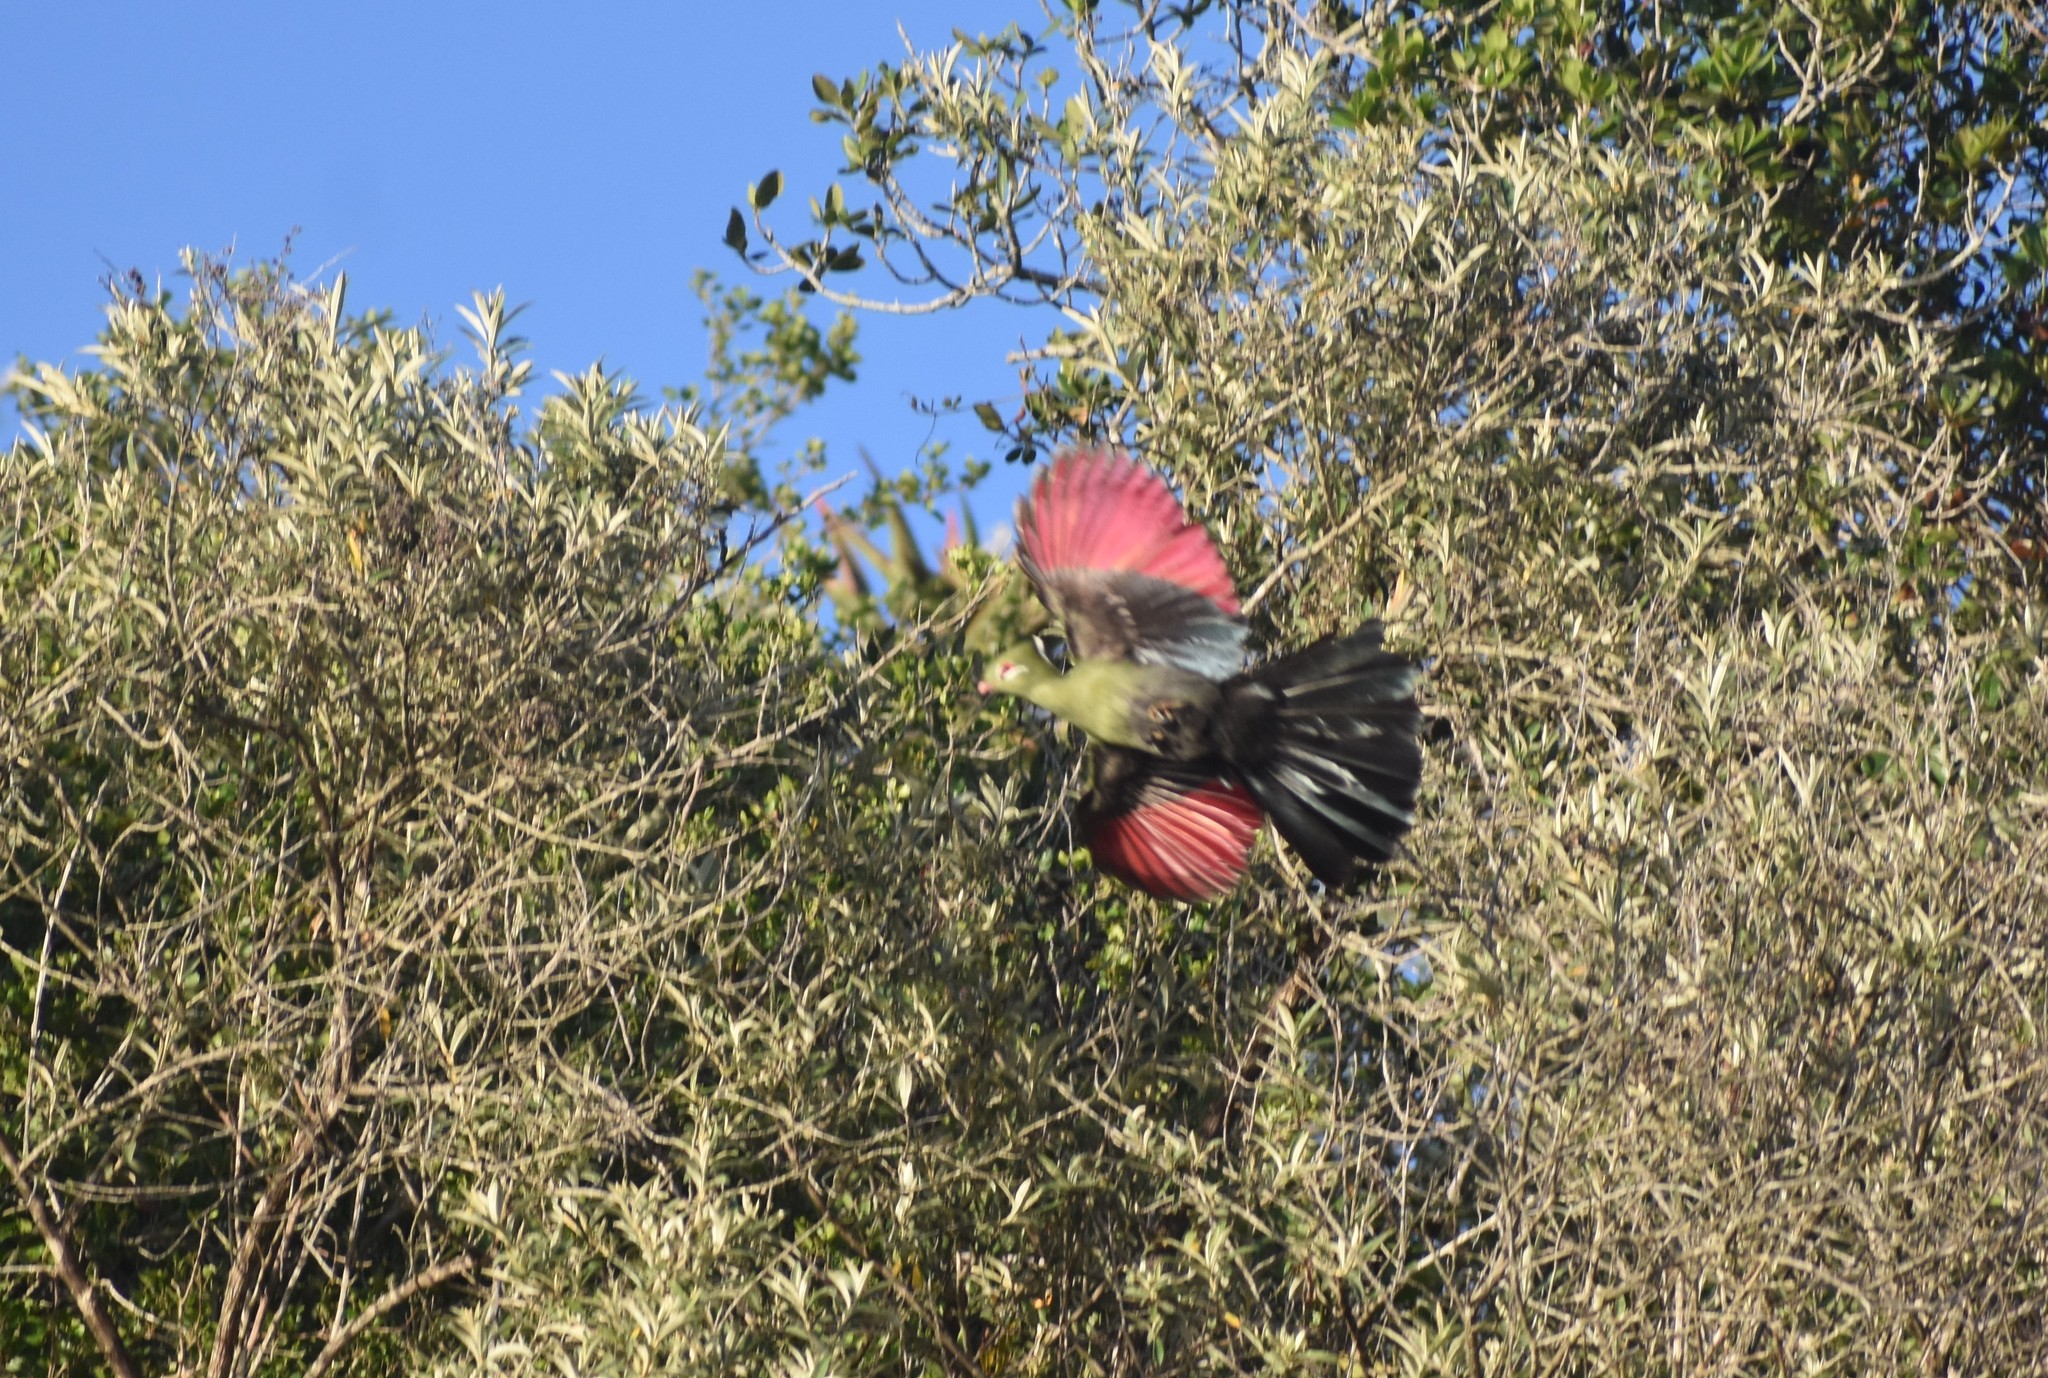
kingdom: Animalia
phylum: Chordata
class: Aves
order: Musophagiformes
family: Musophagidae
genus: Tauraco
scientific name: Tauraco corythaix
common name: Knysna turaco
